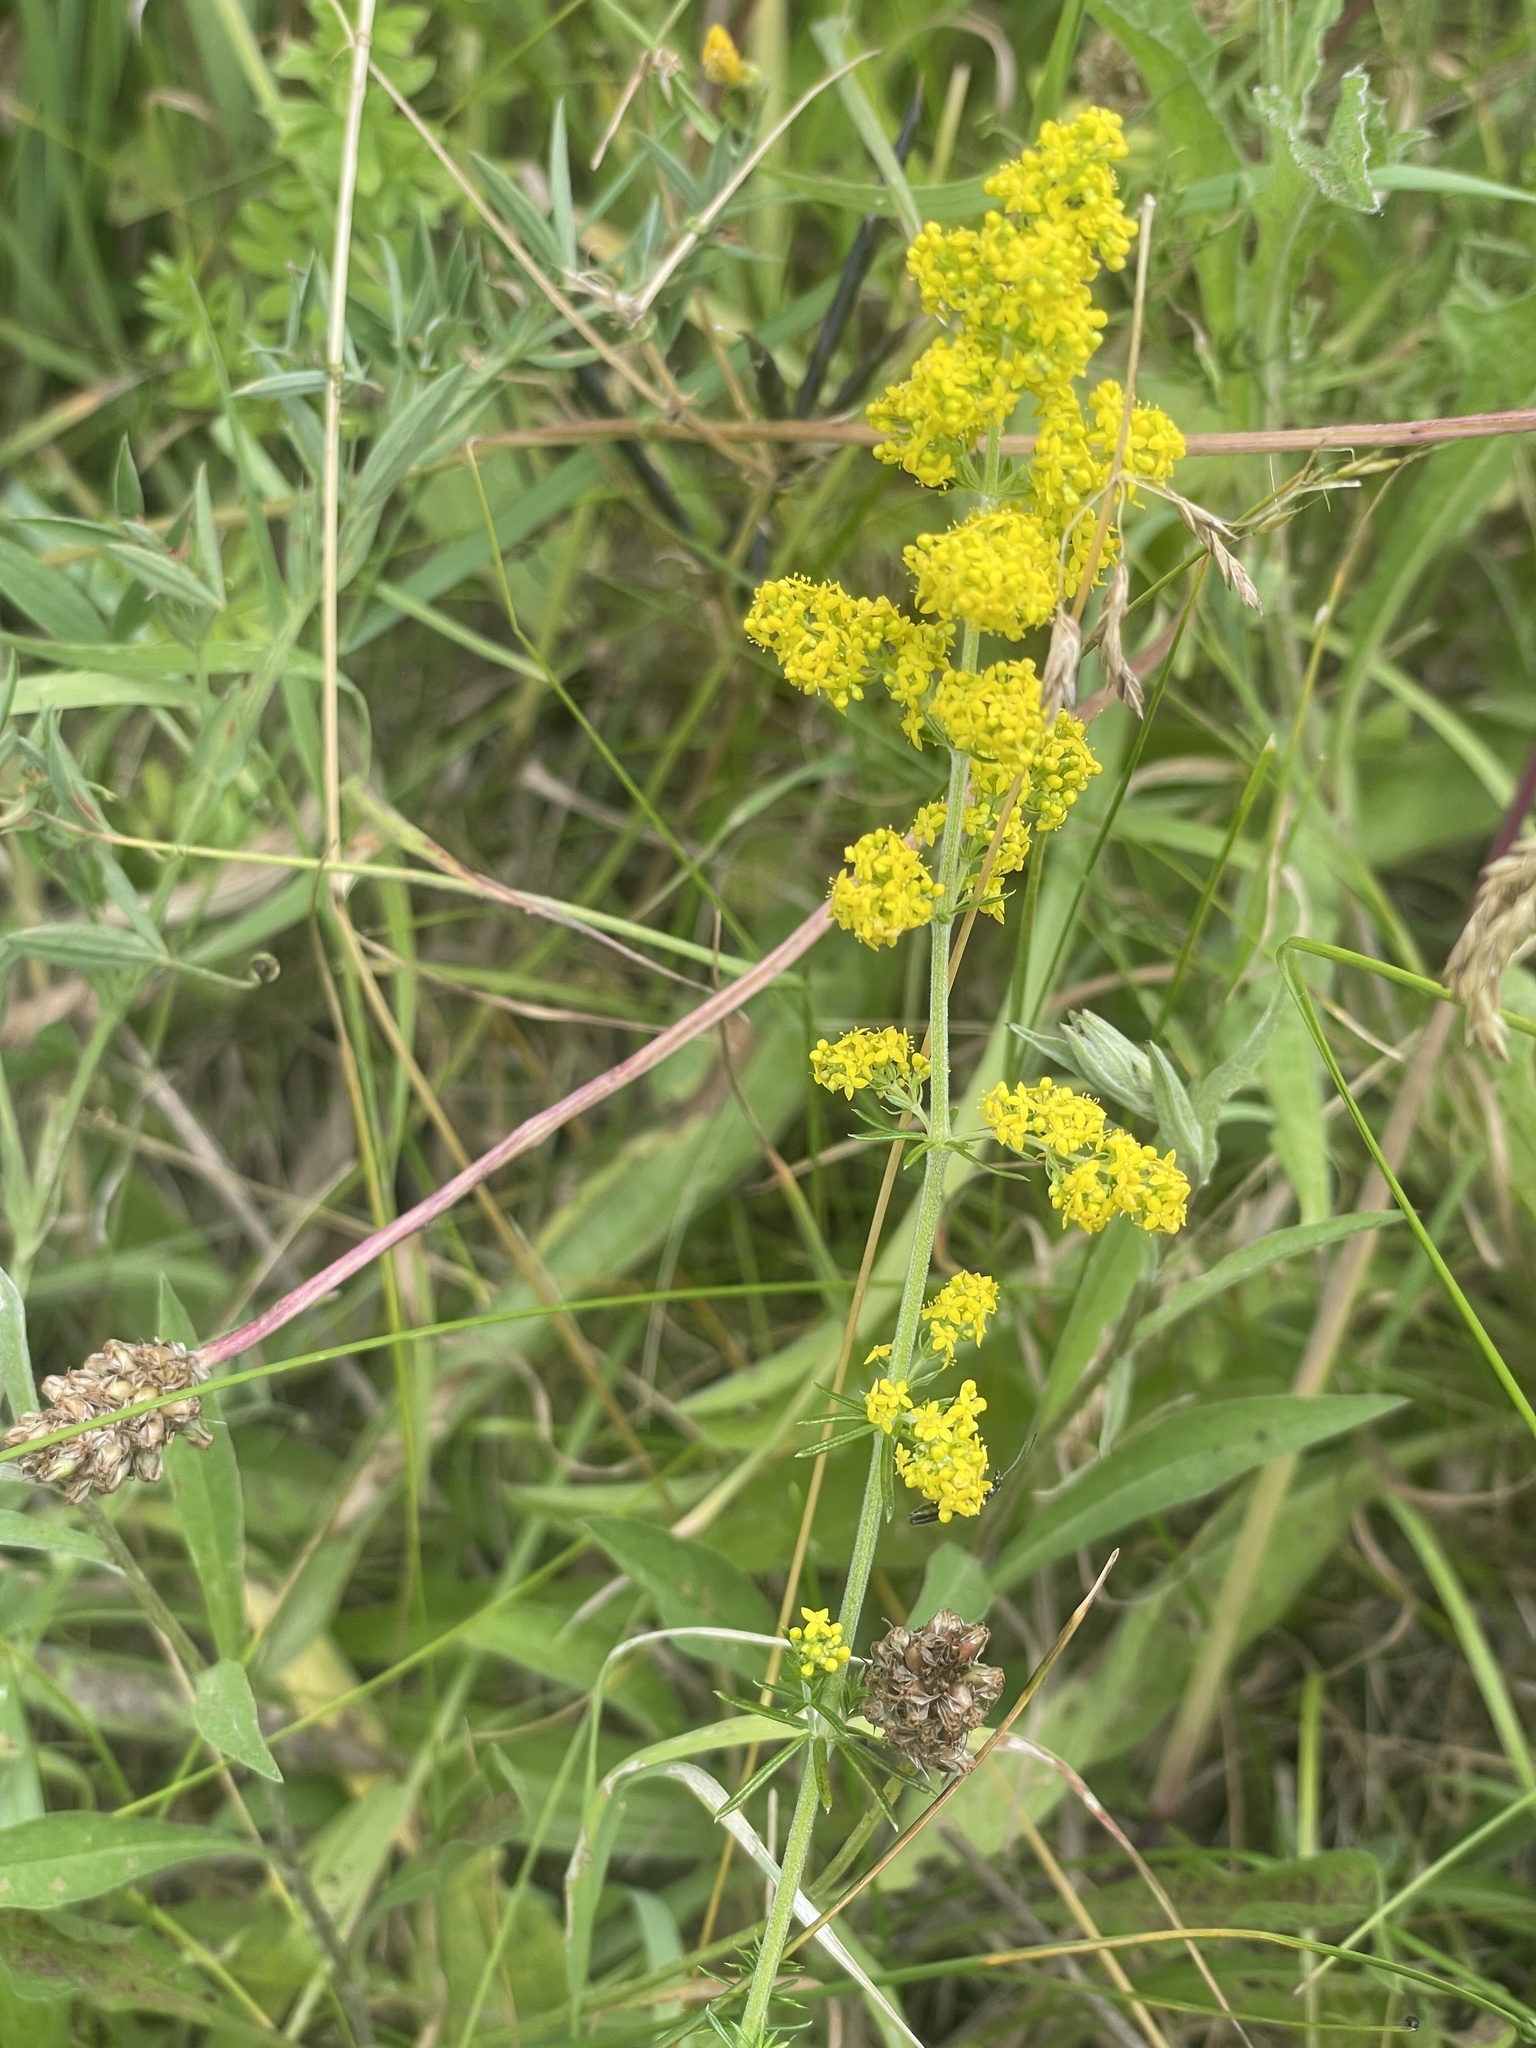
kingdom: Plantae
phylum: Tracheophyta
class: Magnoliopsida
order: Gentianales
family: Rubiaceae
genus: Galium
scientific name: Galium verum
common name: Lady's bedstraw
